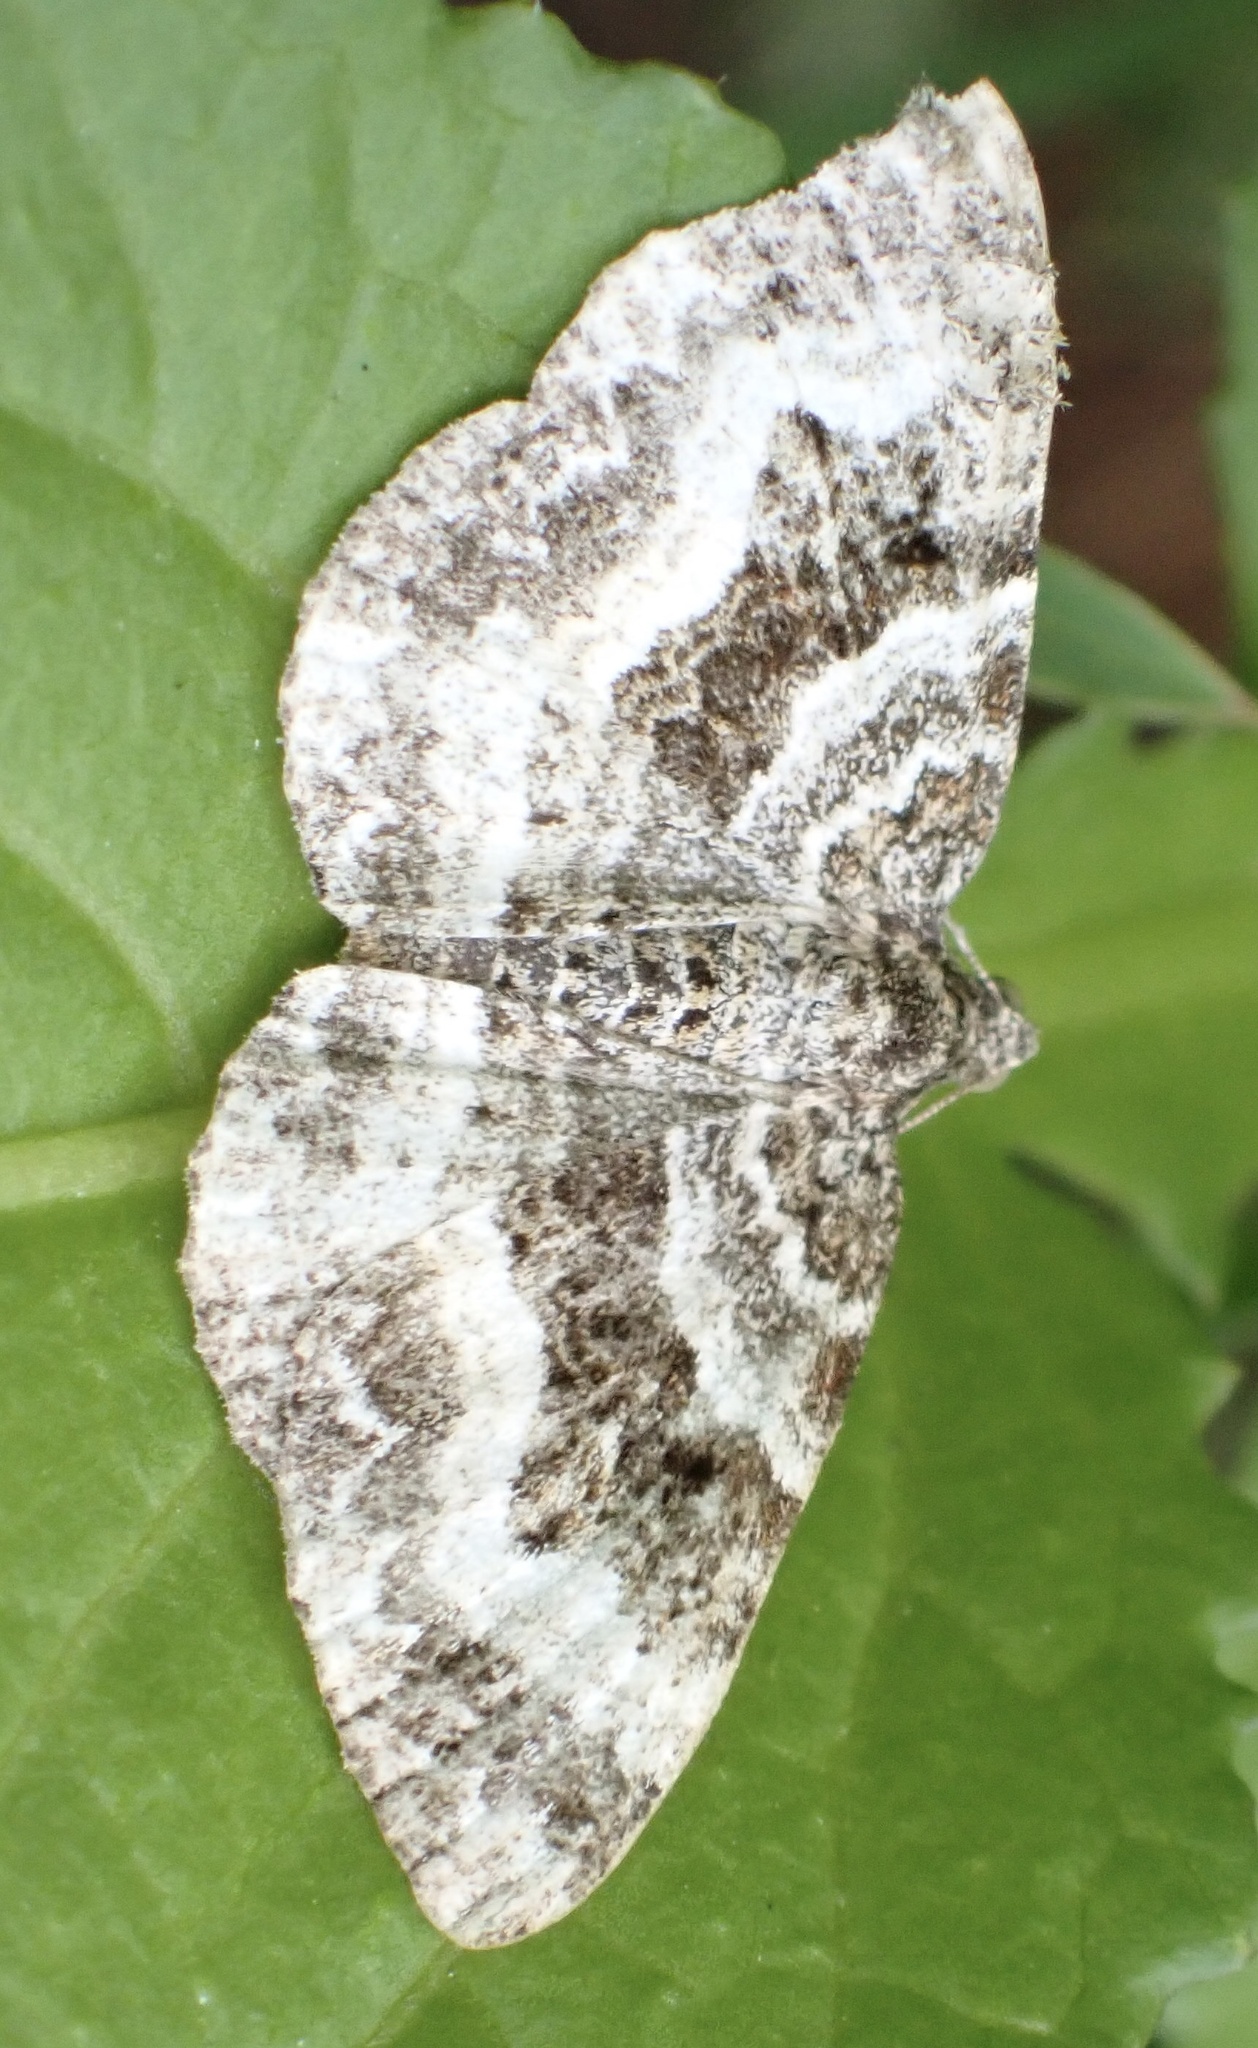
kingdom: Animalia
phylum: Arthropoda
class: Insecta
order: Lepidoptera
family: Geometridae
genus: Epirrhoe
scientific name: Epirrhoe alternata
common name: Common carpet
